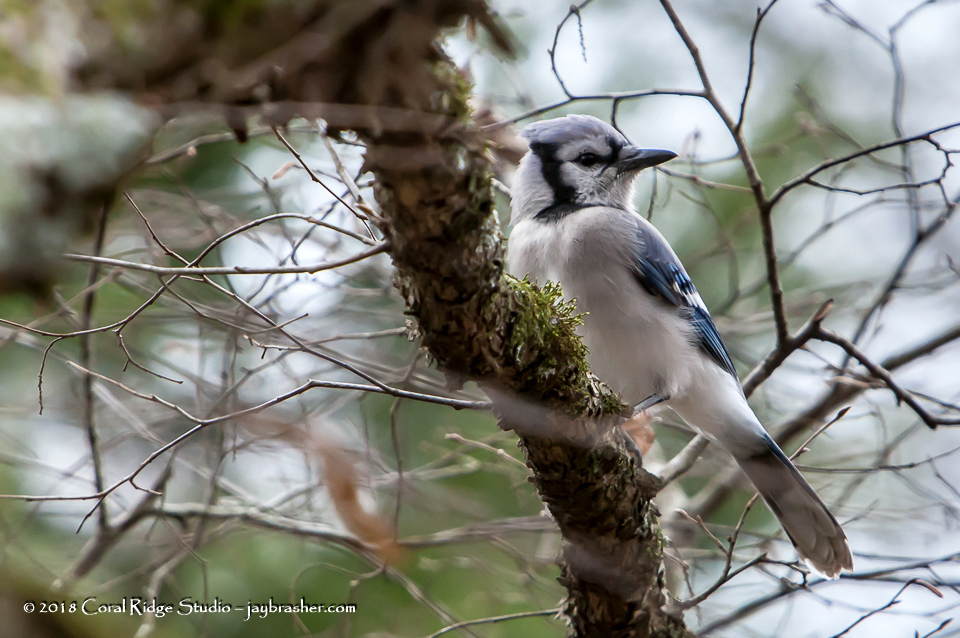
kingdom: Animalia
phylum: Chordata
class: Aves
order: Passeriformes
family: Corvidae
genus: Cyanocitta
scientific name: Cyanocitta cristata
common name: Blue jay
